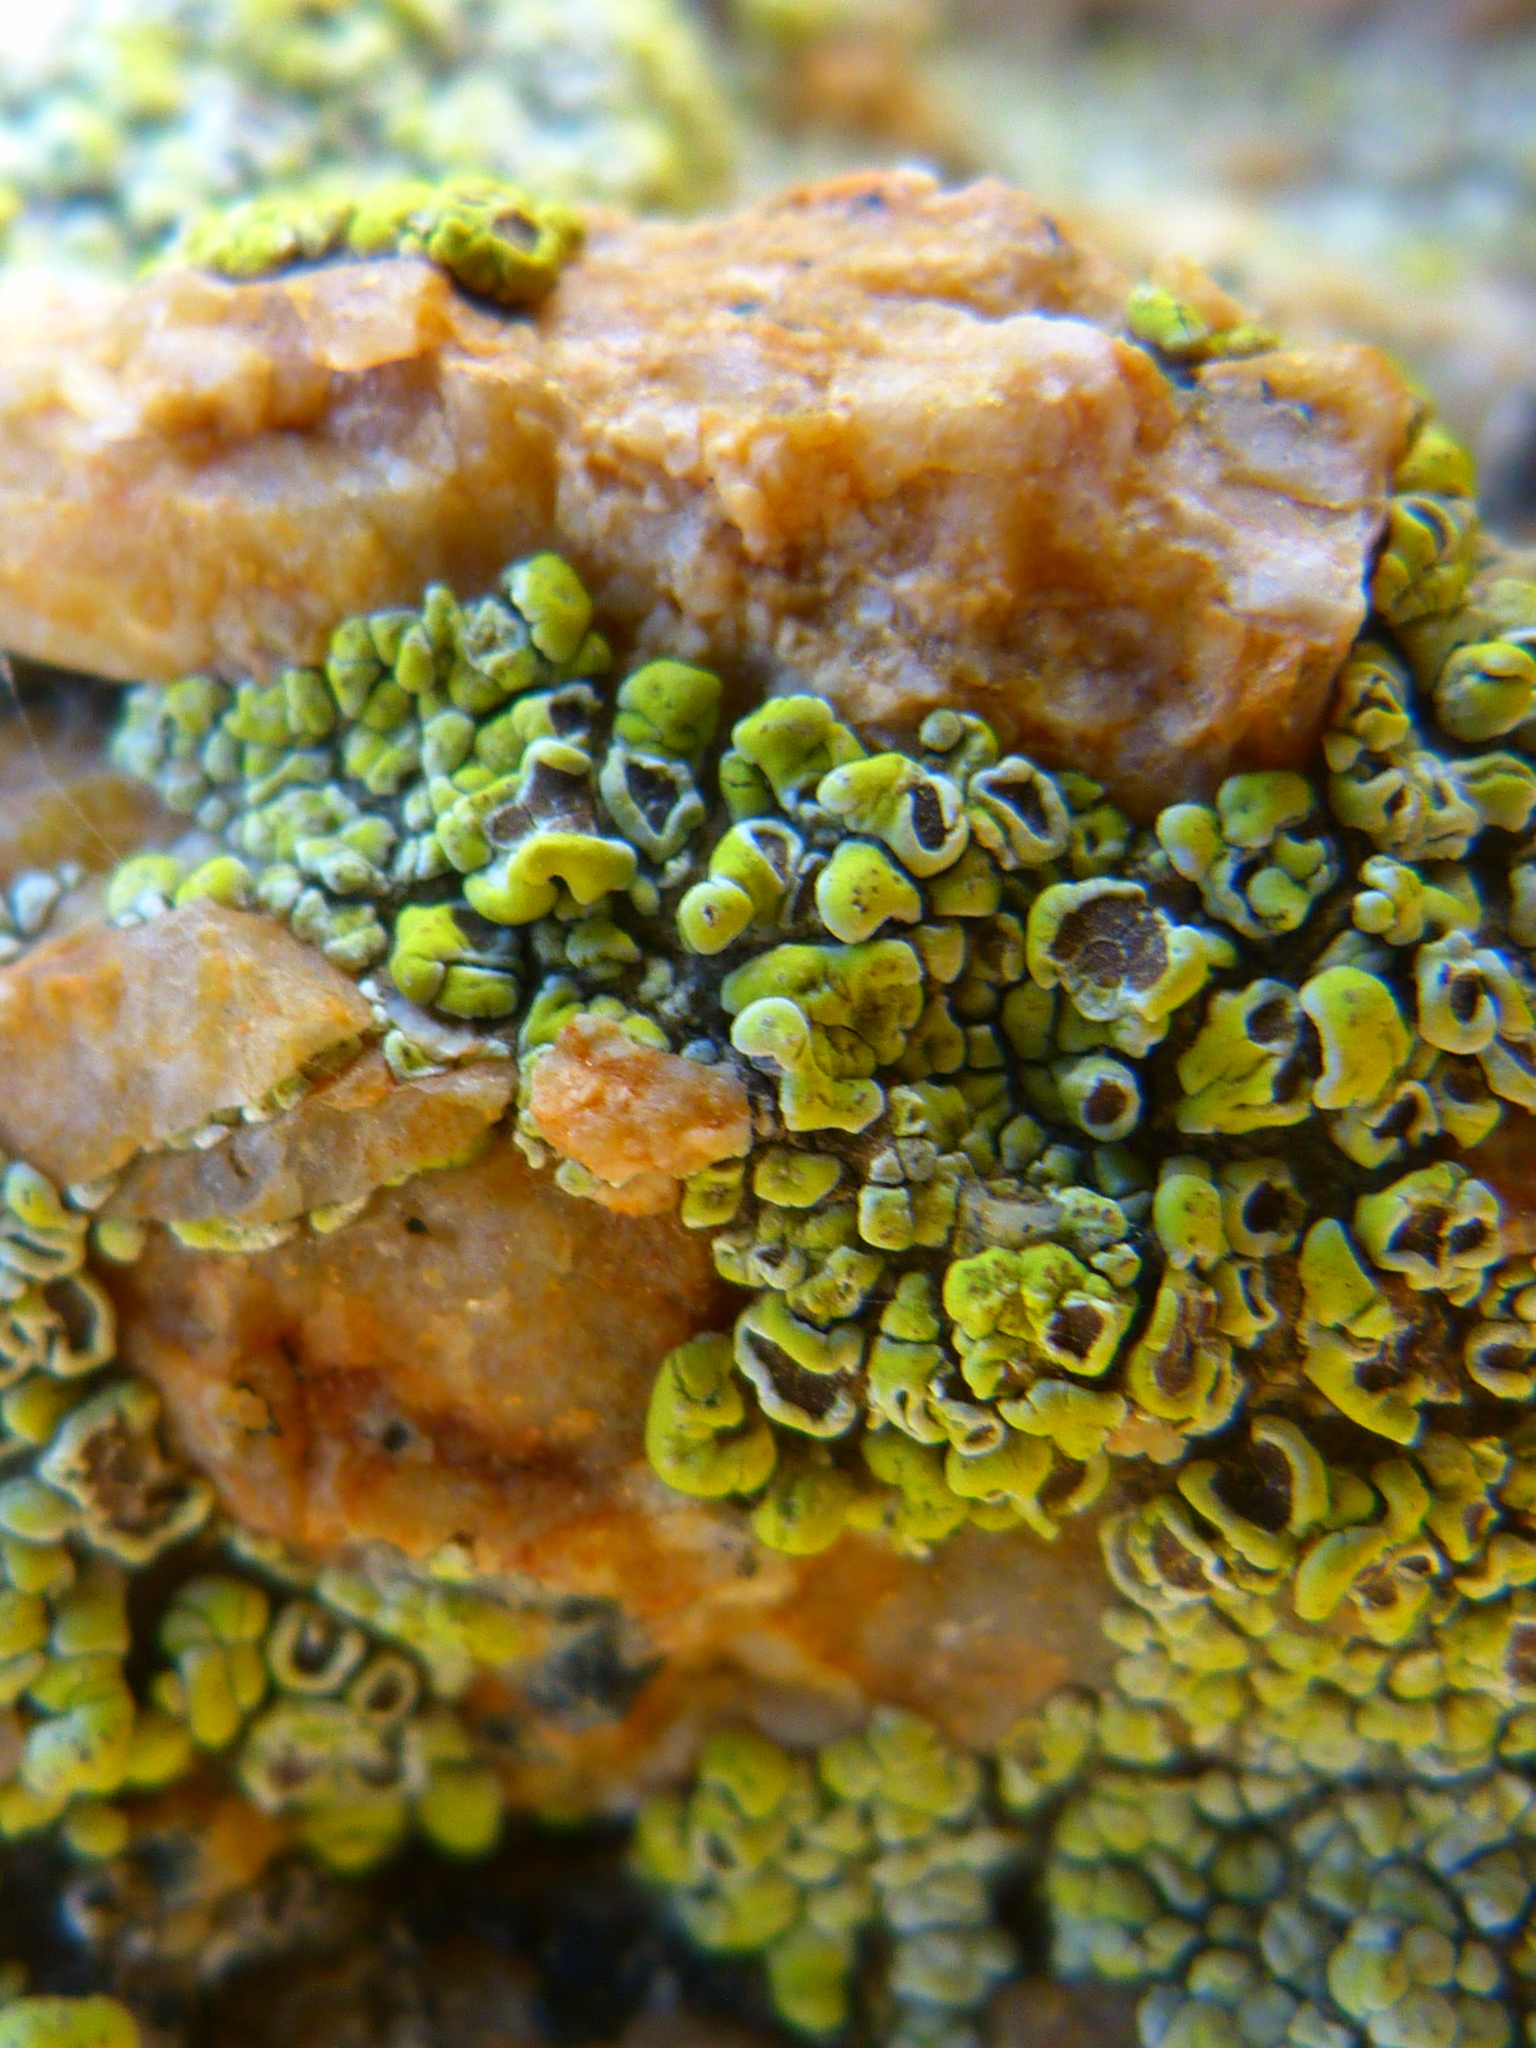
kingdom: Fungi
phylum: Ascomycota
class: Lecanoromycetes
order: Acarosporales
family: Acarosporaceae
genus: Acarospora
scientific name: Acarospora socialis
